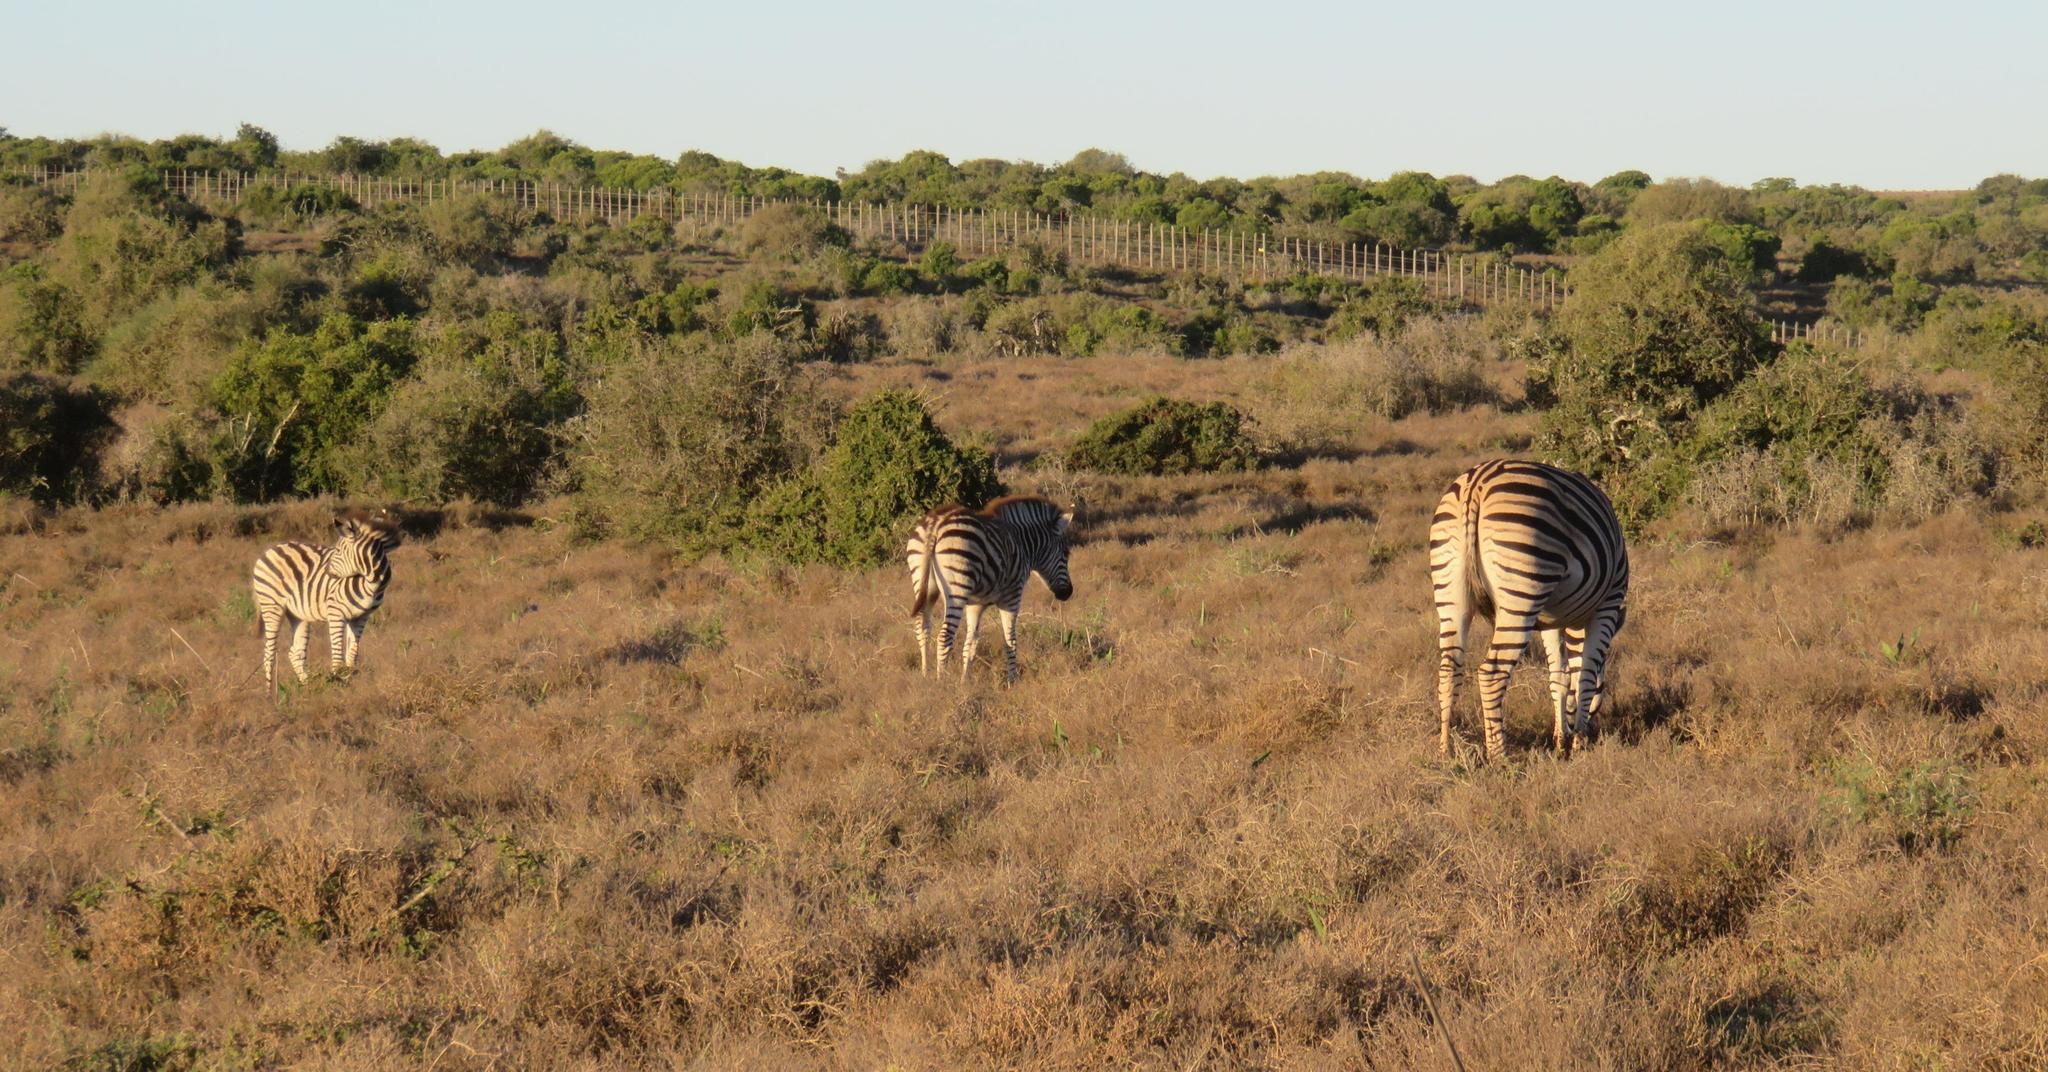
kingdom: Animalia
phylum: Chordata
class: Mammalia
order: Perissodactyla
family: Equidae
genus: Equus
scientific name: Equus quagga
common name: Plains zebra
